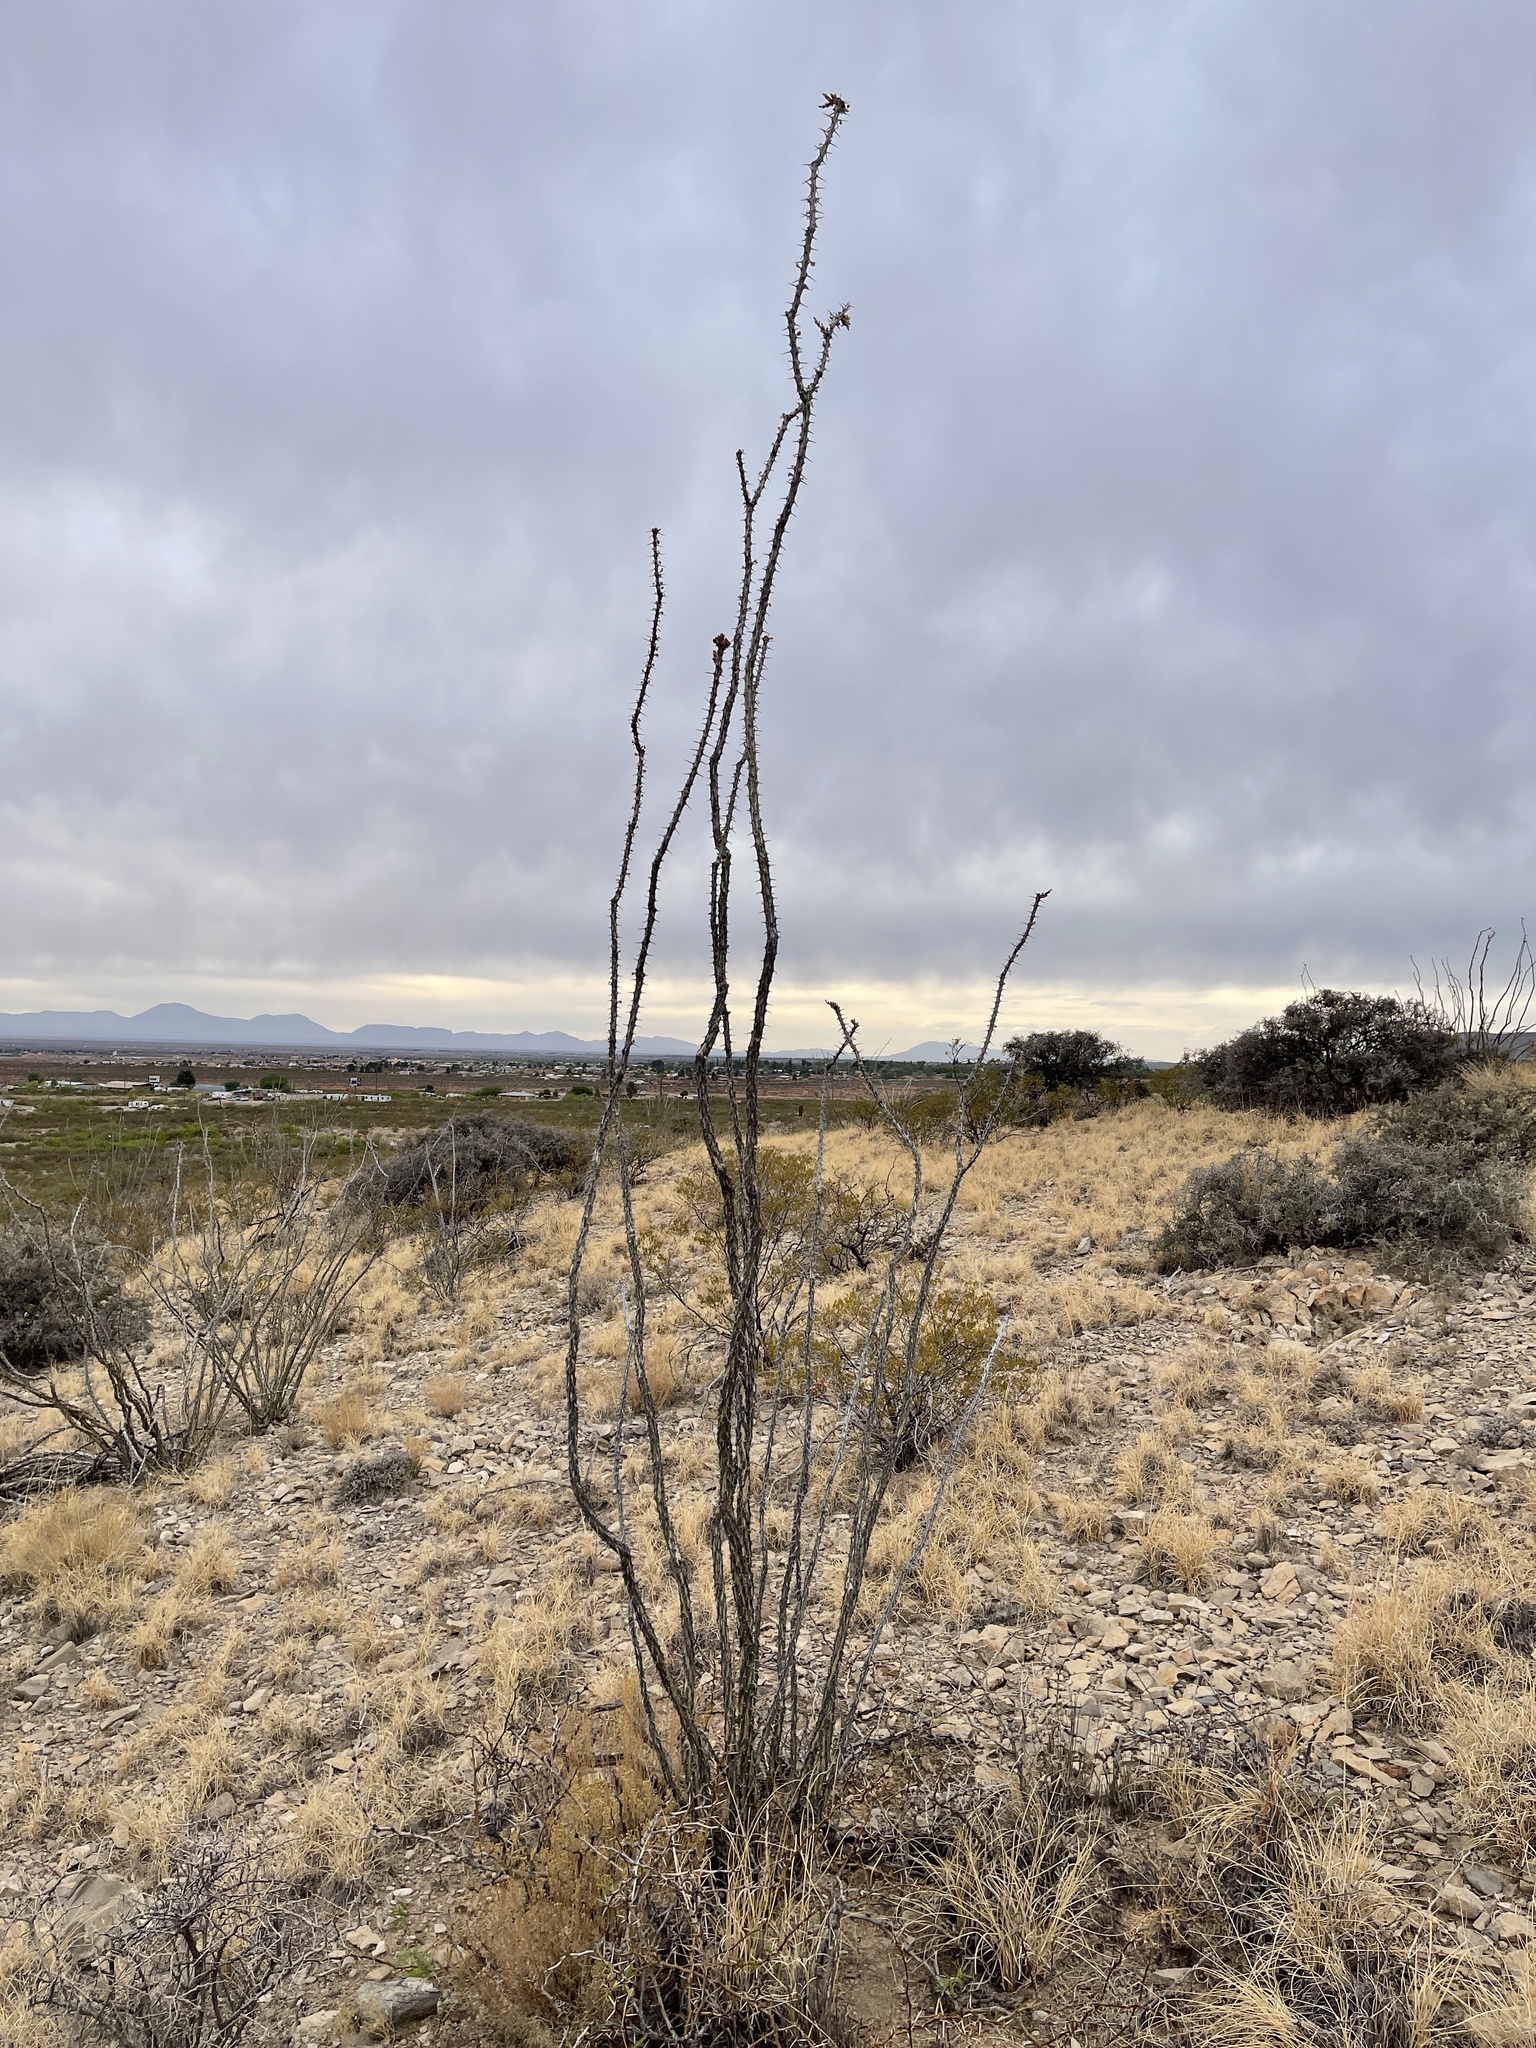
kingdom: Plantae
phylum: Tracheophyta
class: Magnoliopsida
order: Ericales
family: Fouquieriaceae
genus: Fouquieria
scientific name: Fouquieria splendens
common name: Vine-cactus
